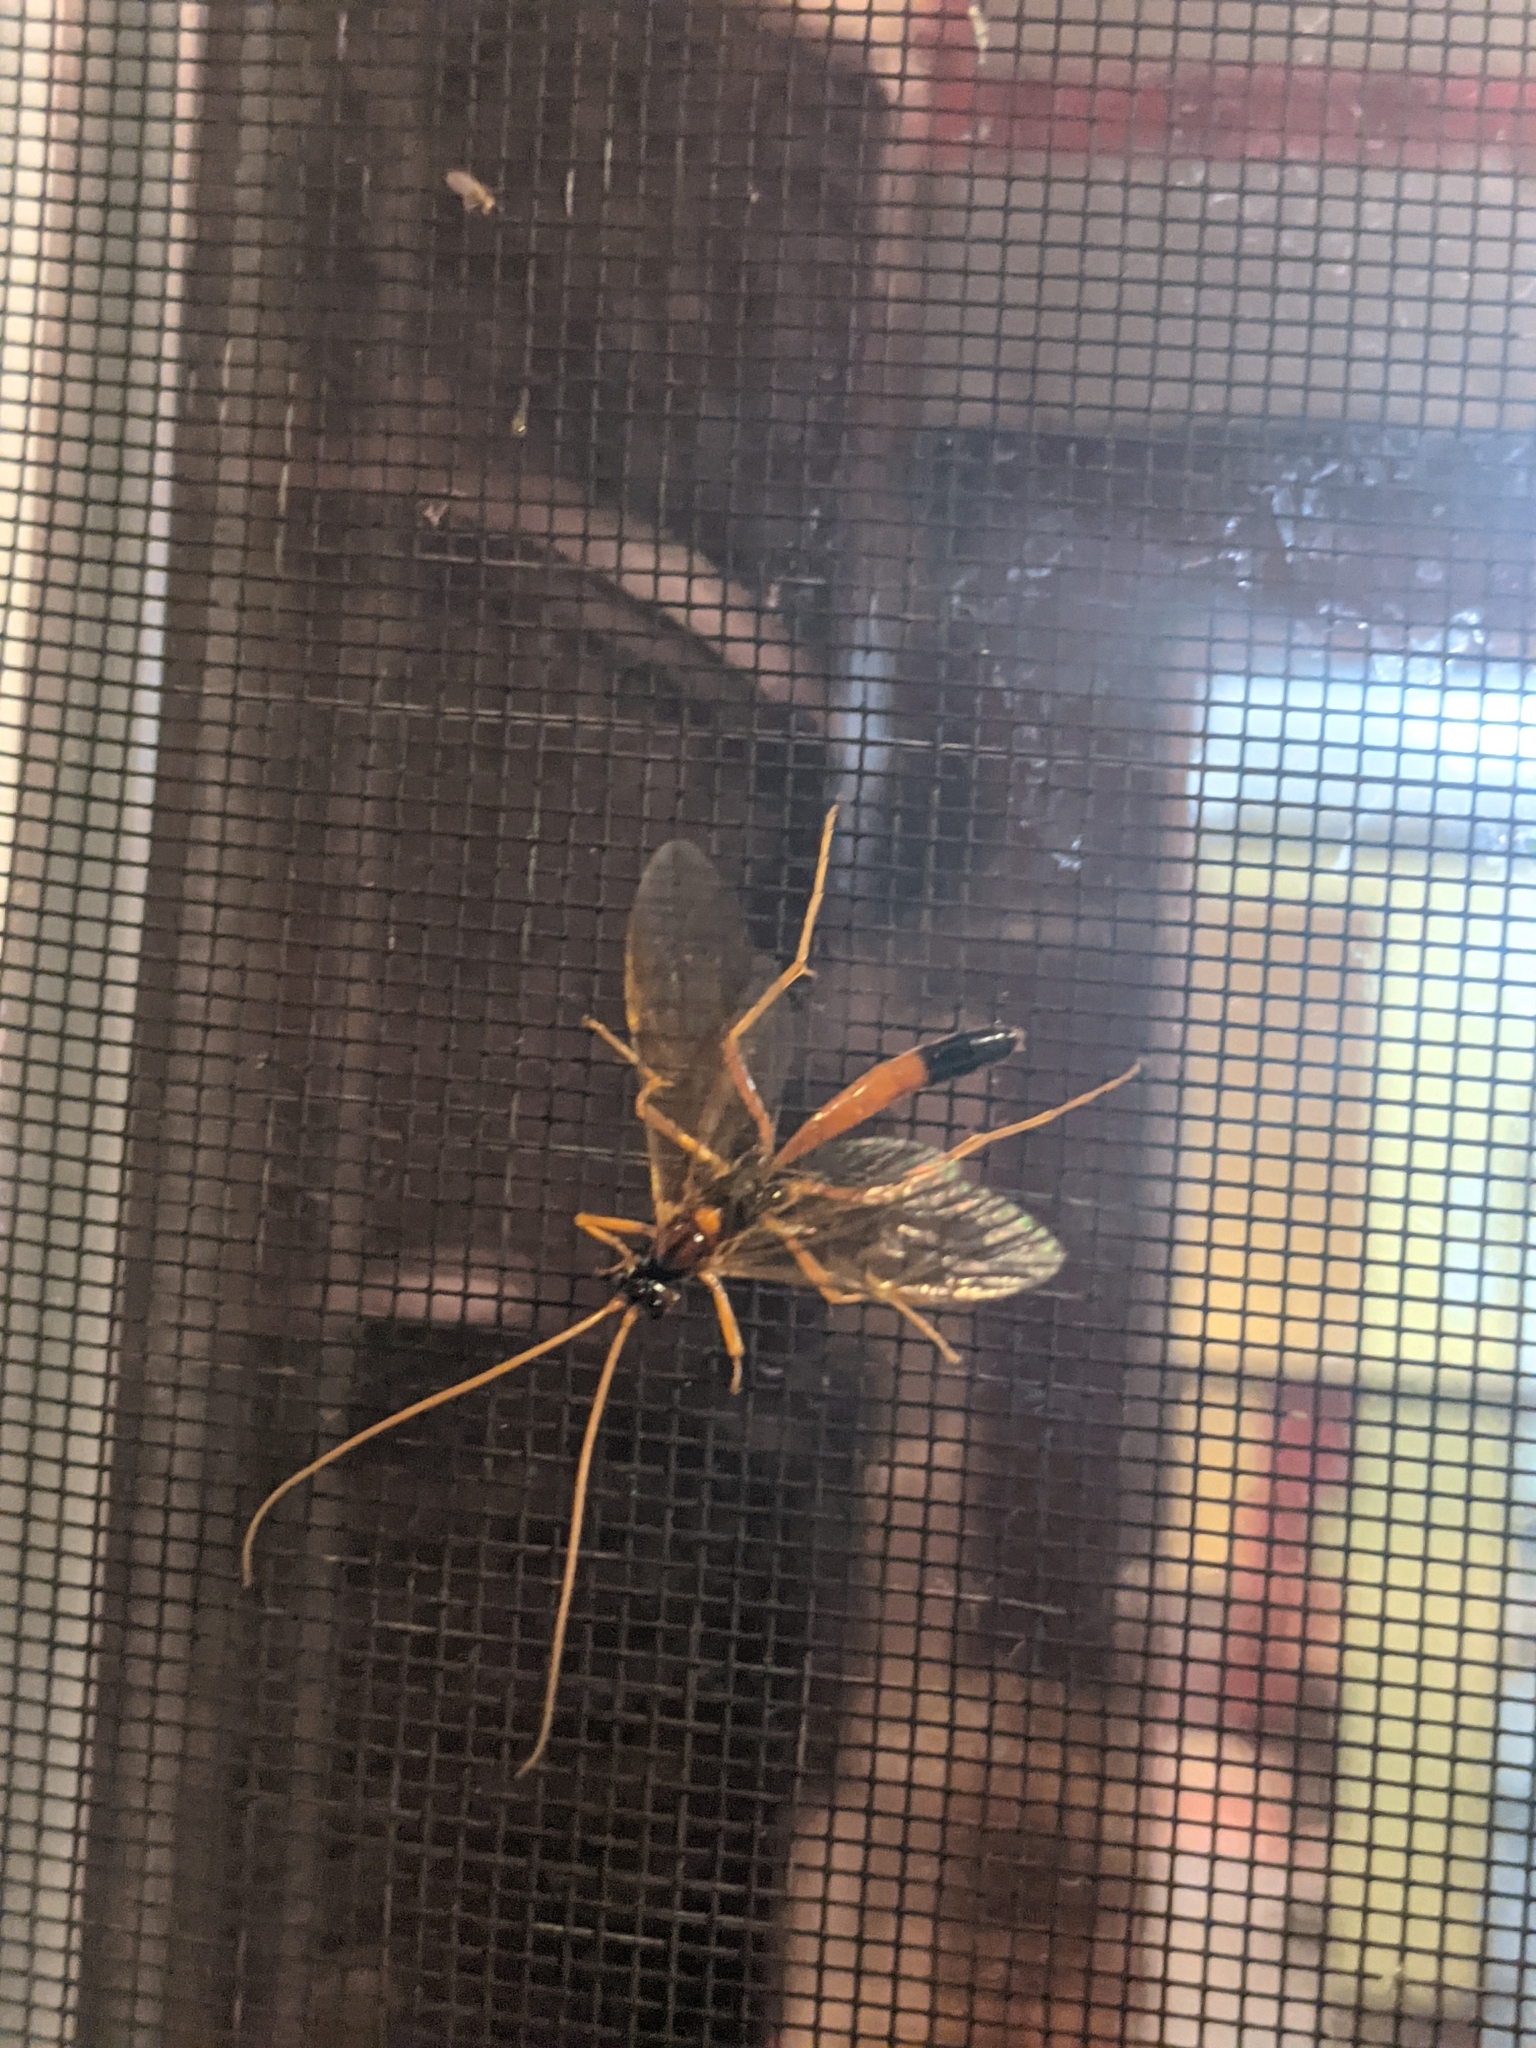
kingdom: Animalia
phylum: Arthropoda
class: Insecta
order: Hymenoptera
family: Ichneumonidae
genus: Opheltes
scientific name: Opheltes glaucopterus
